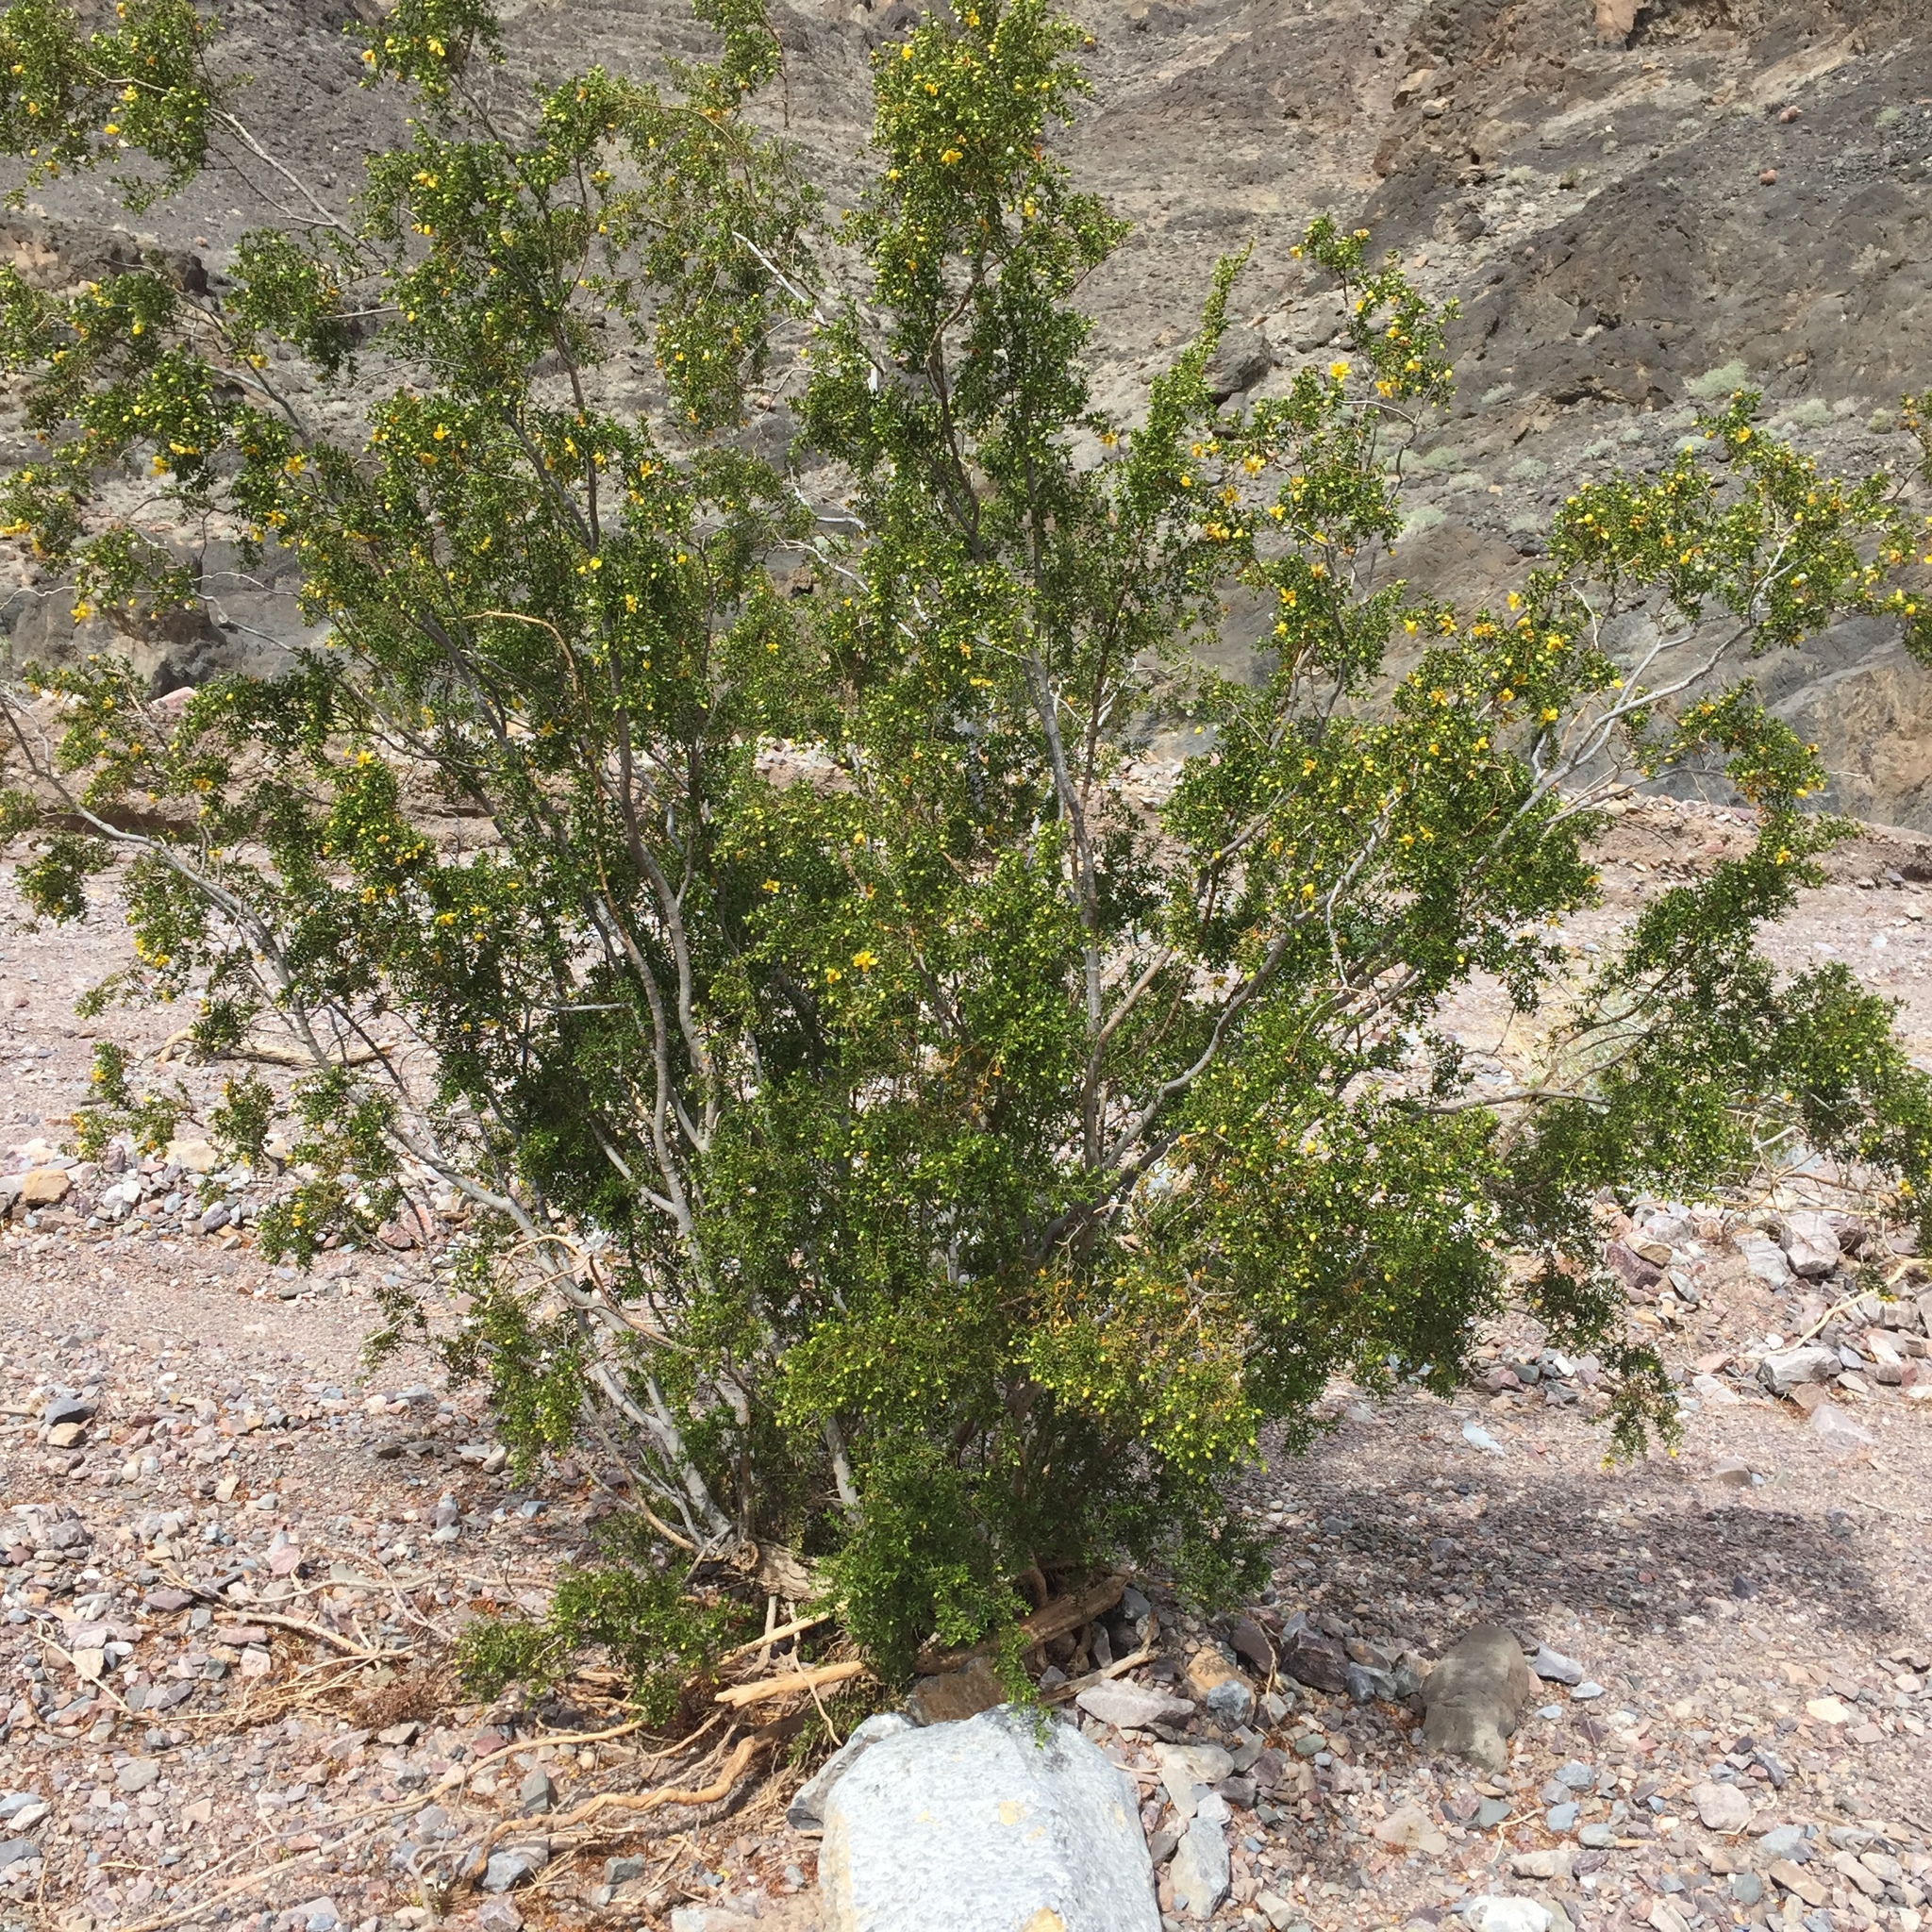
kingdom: Plantae
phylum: Tracheophyta
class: Magnoliopsida
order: Zygophyllales
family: Zygophyllaceae
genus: Larrea
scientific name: Larrea tridentata
